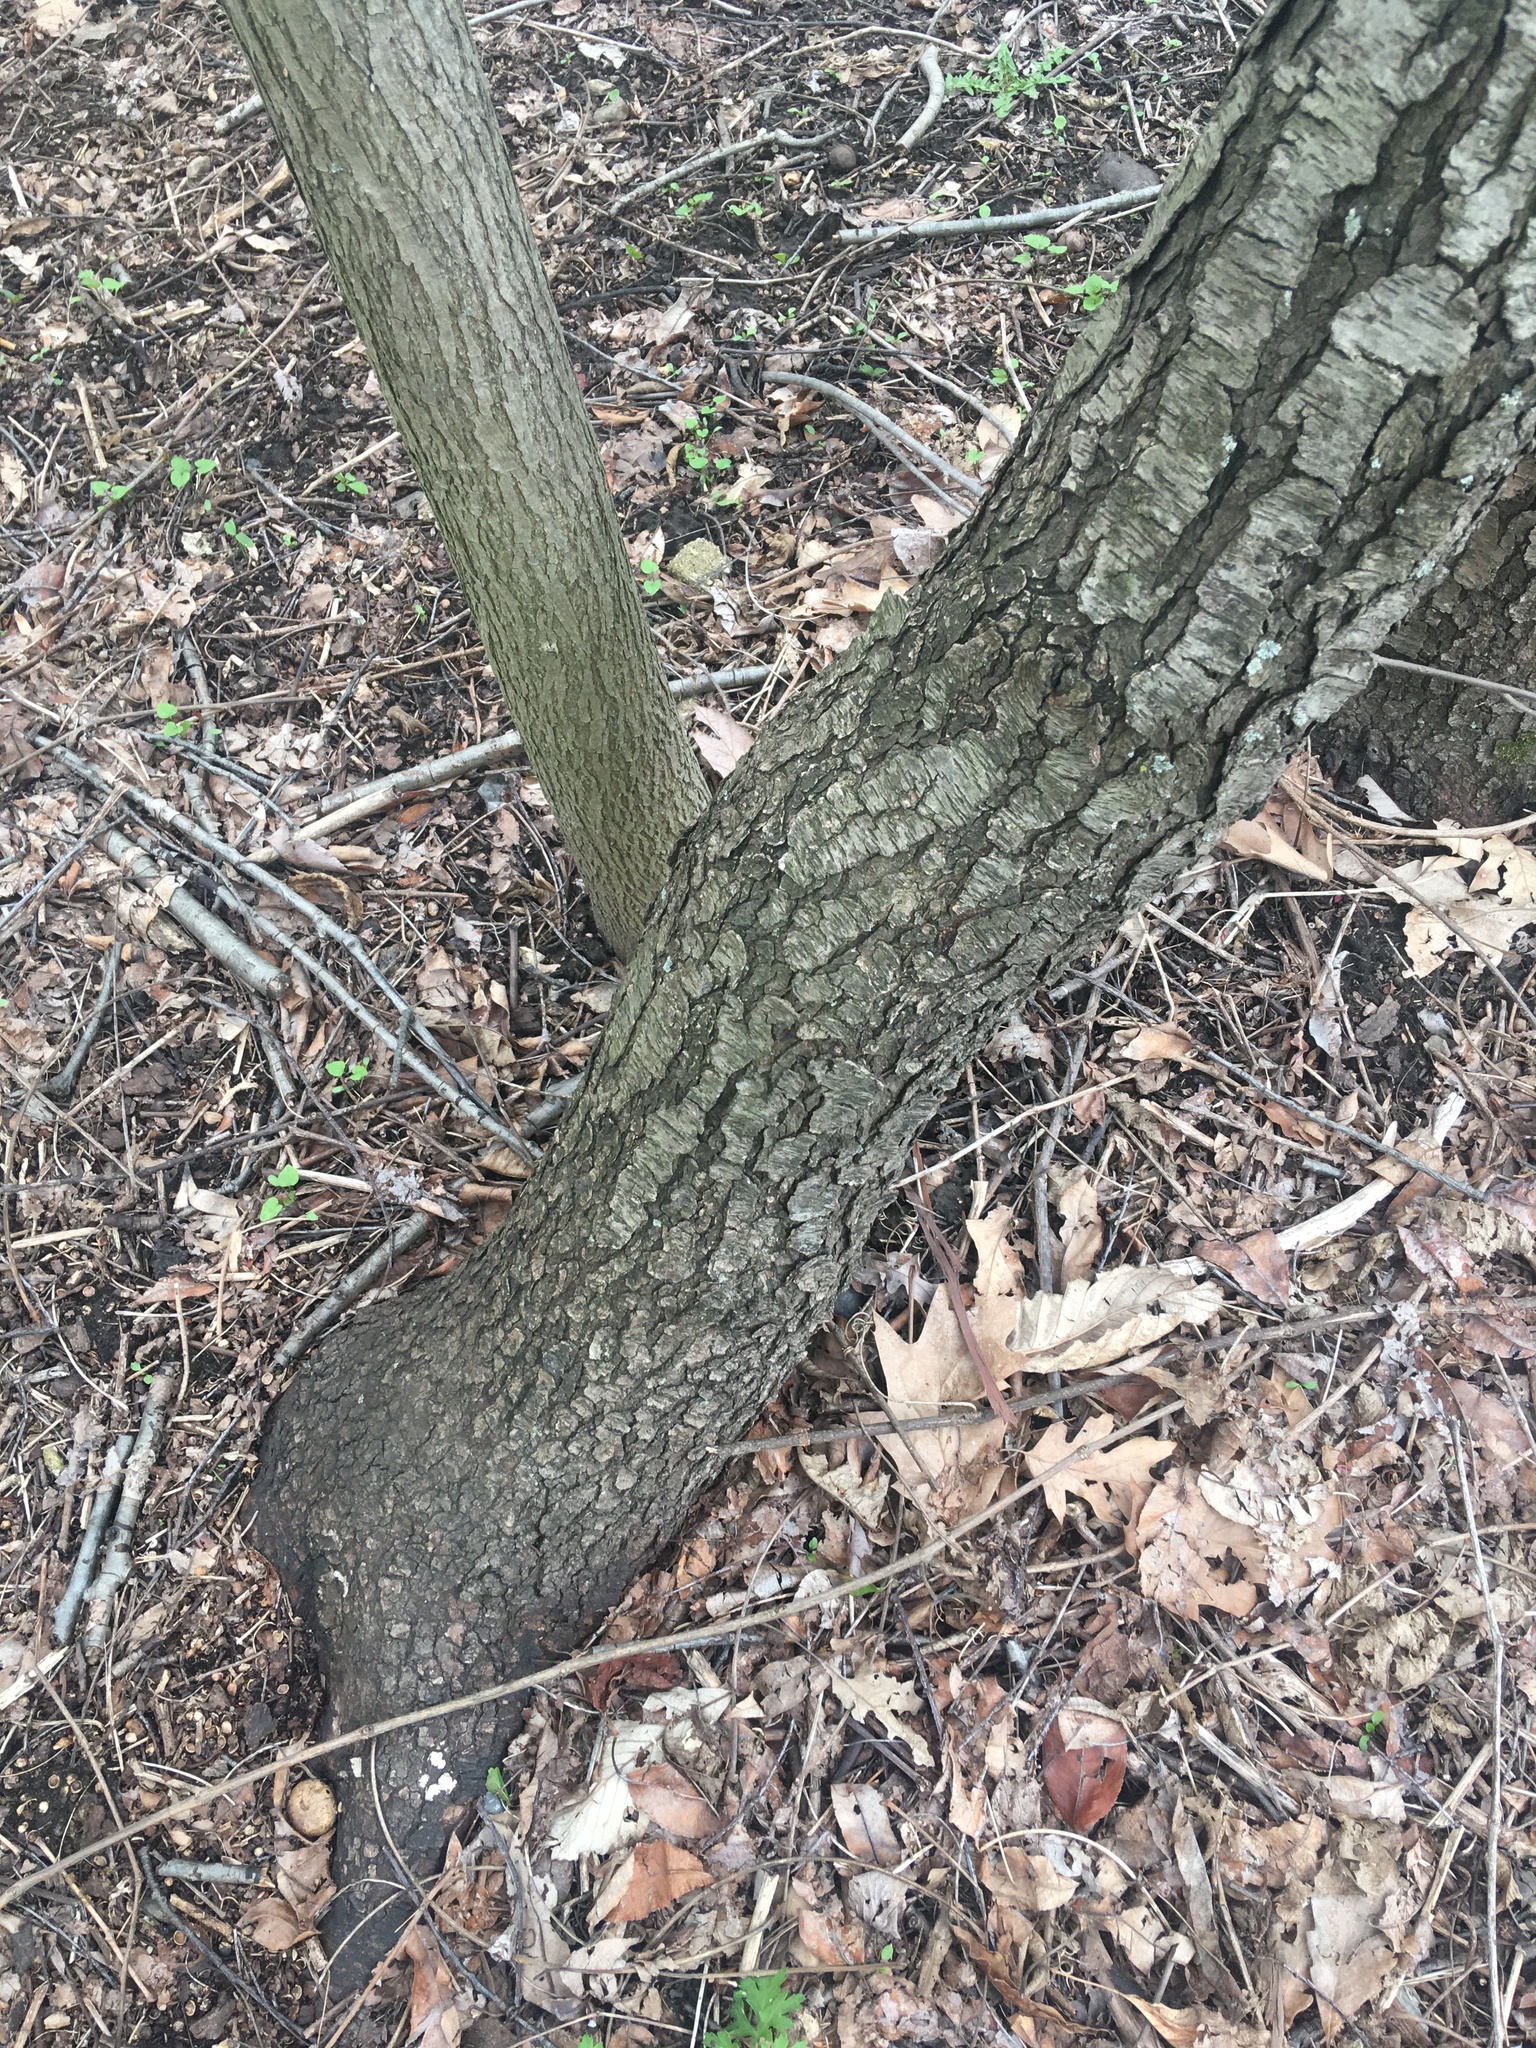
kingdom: Plantae
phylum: Tracheophyta
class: Magnoliopsida
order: Rosales
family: Rosaceae
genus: Prunus
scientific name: Prunus serotina
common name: Black cherry
